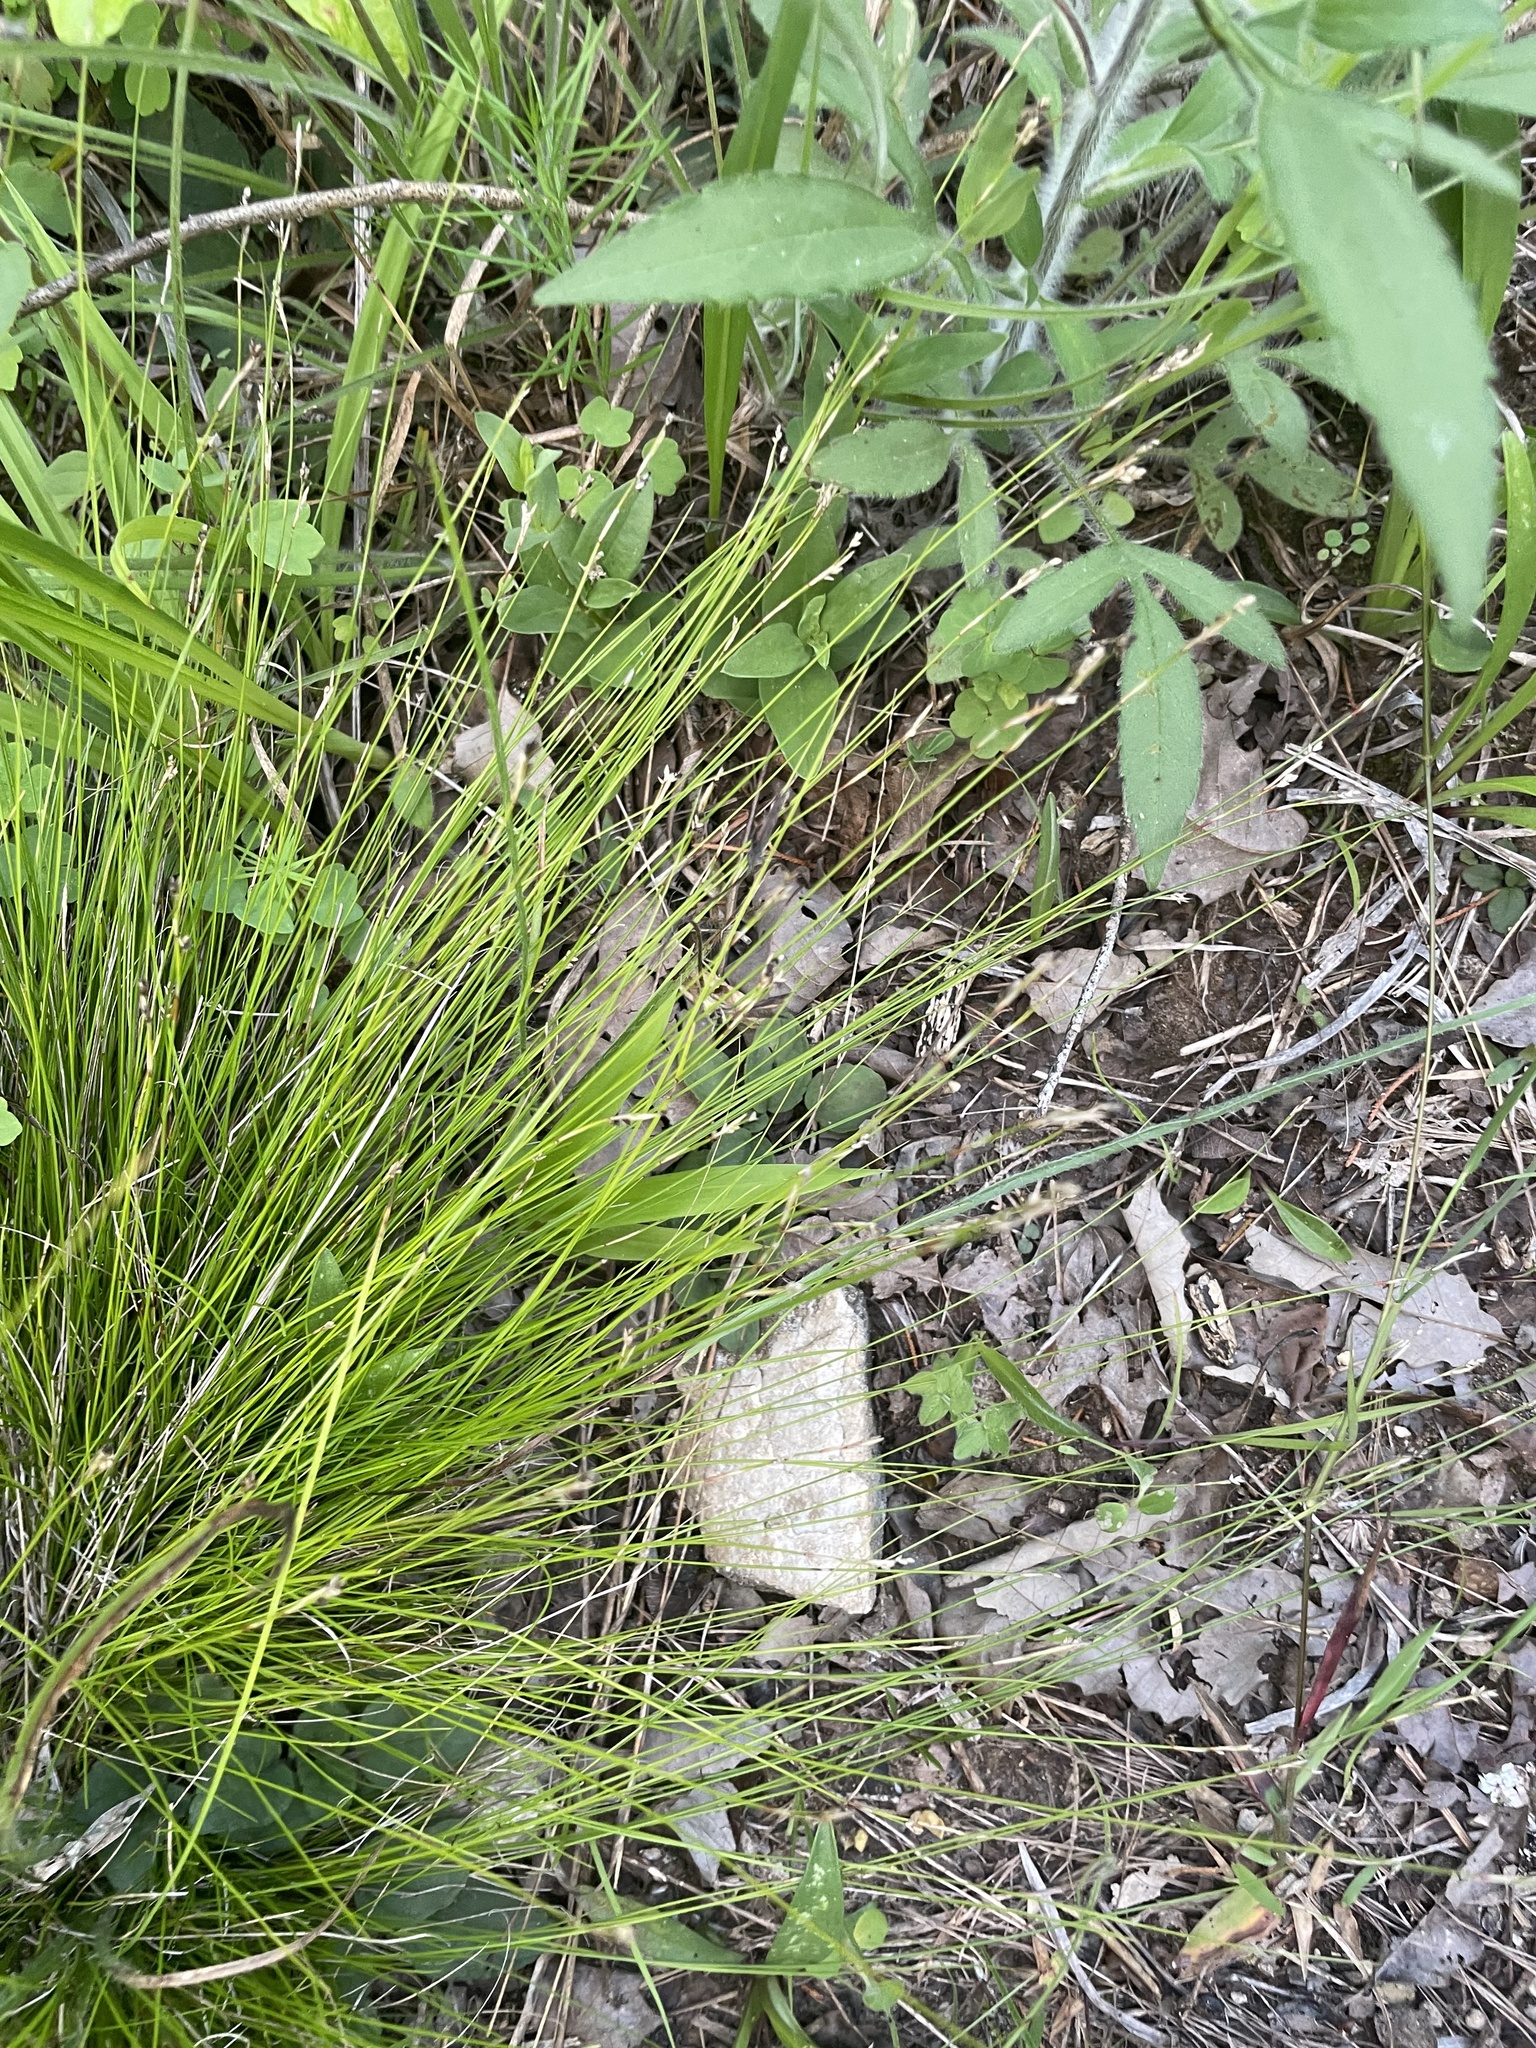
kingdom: Plantae
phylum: Tracheophyta
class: Liliopsida
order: Poales
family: Cyperaceae
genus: Carex
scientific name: Carex eburnea
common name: Bristle-leaved sedge
